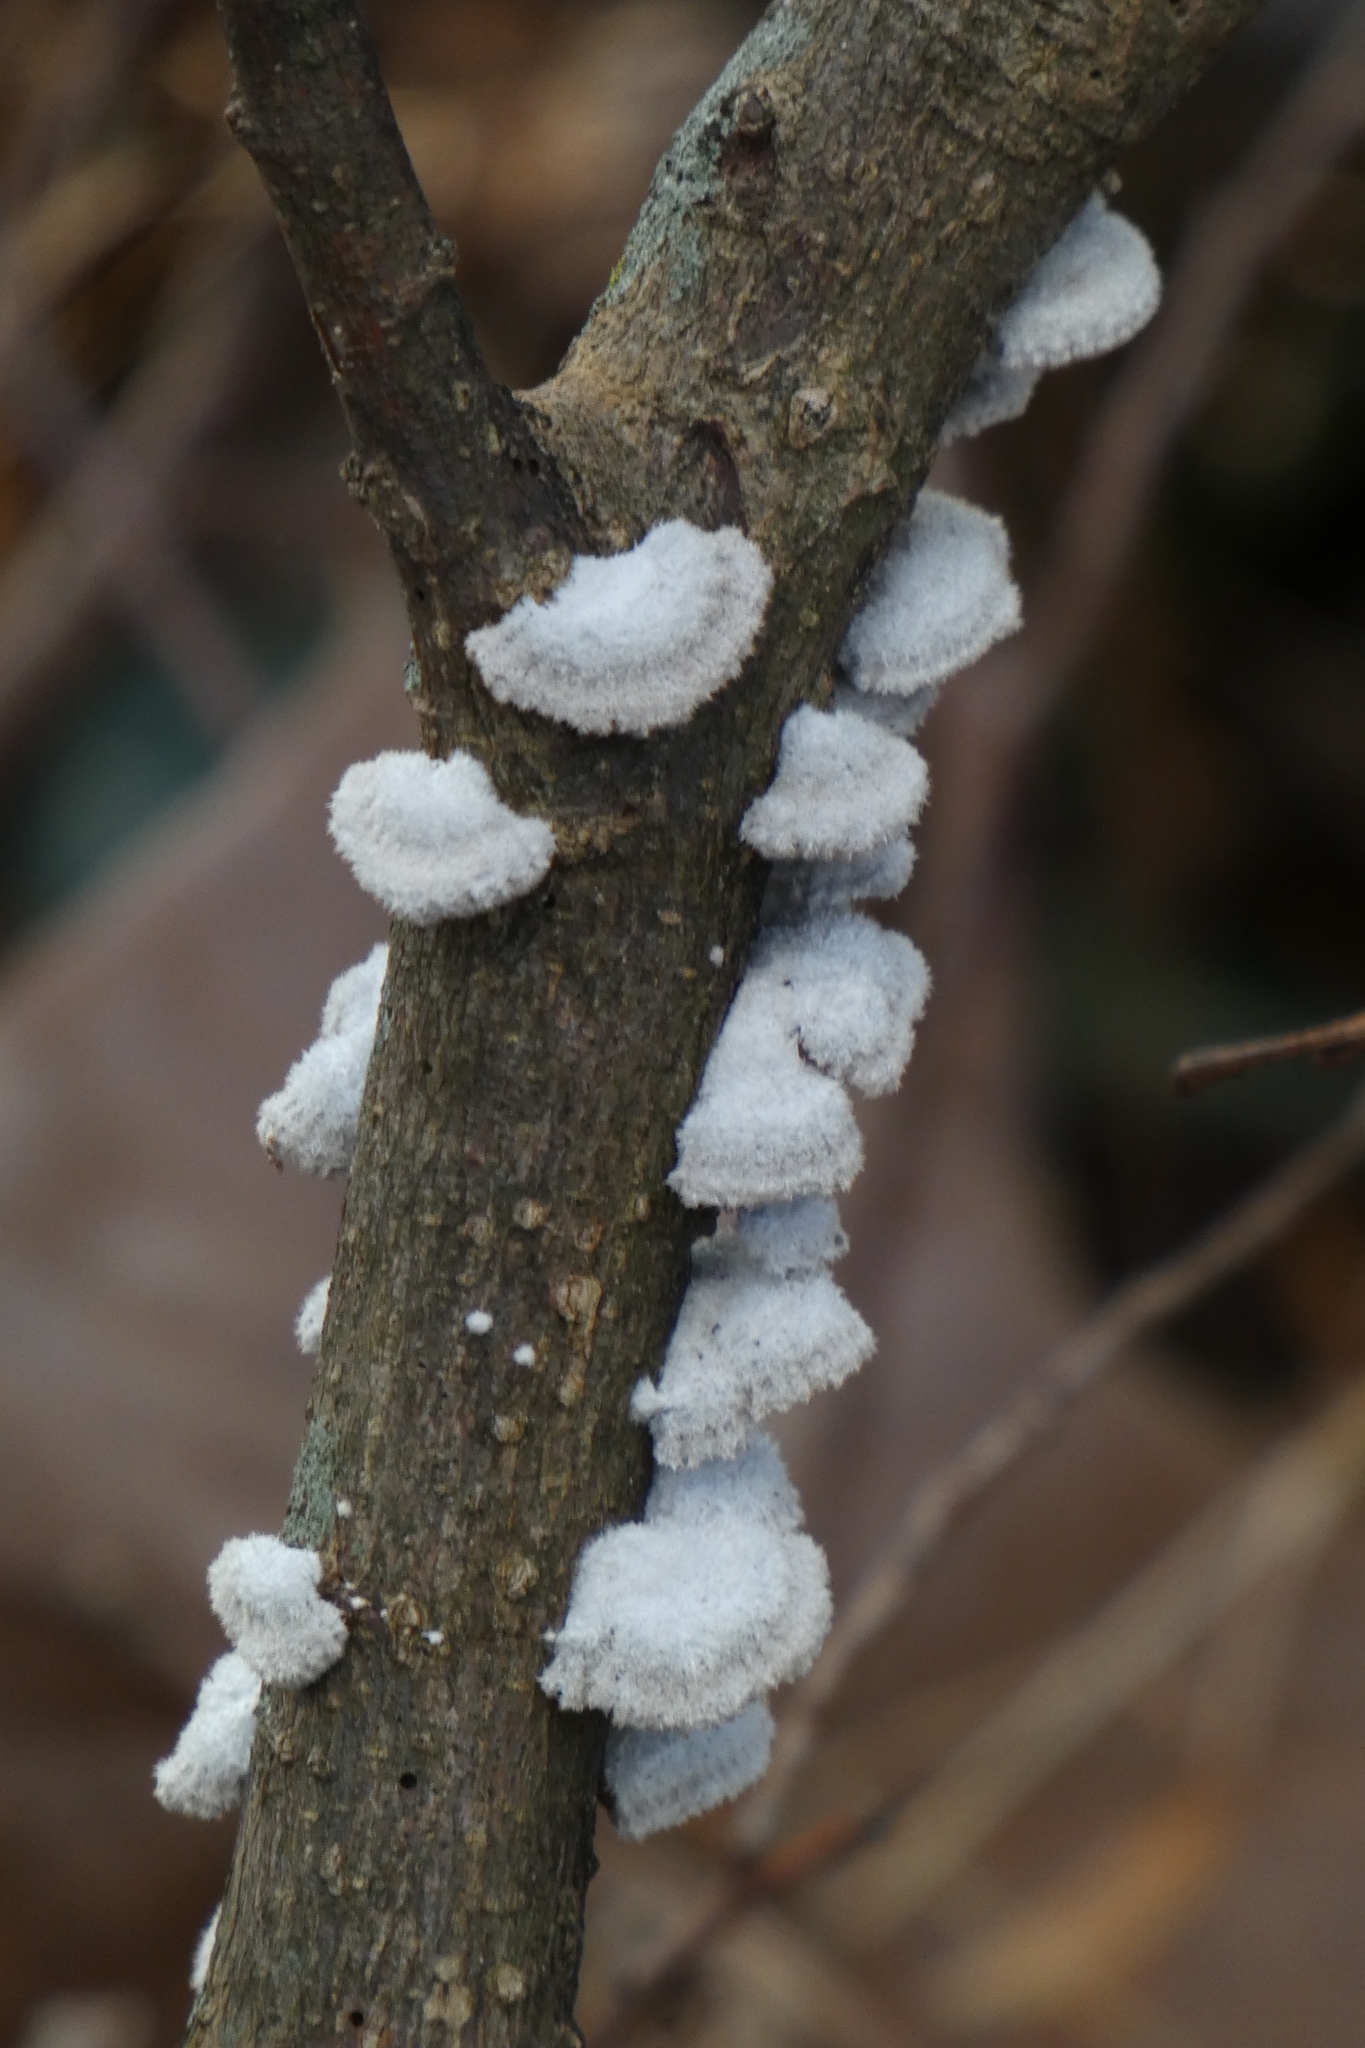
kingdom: Fungi
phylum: Basidiomycota
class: Agaricomycetes
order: Agaricales
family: Schizophyllaceae
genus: Schizophyllum
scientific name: Schizophyllum commune
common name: Common porecrust
